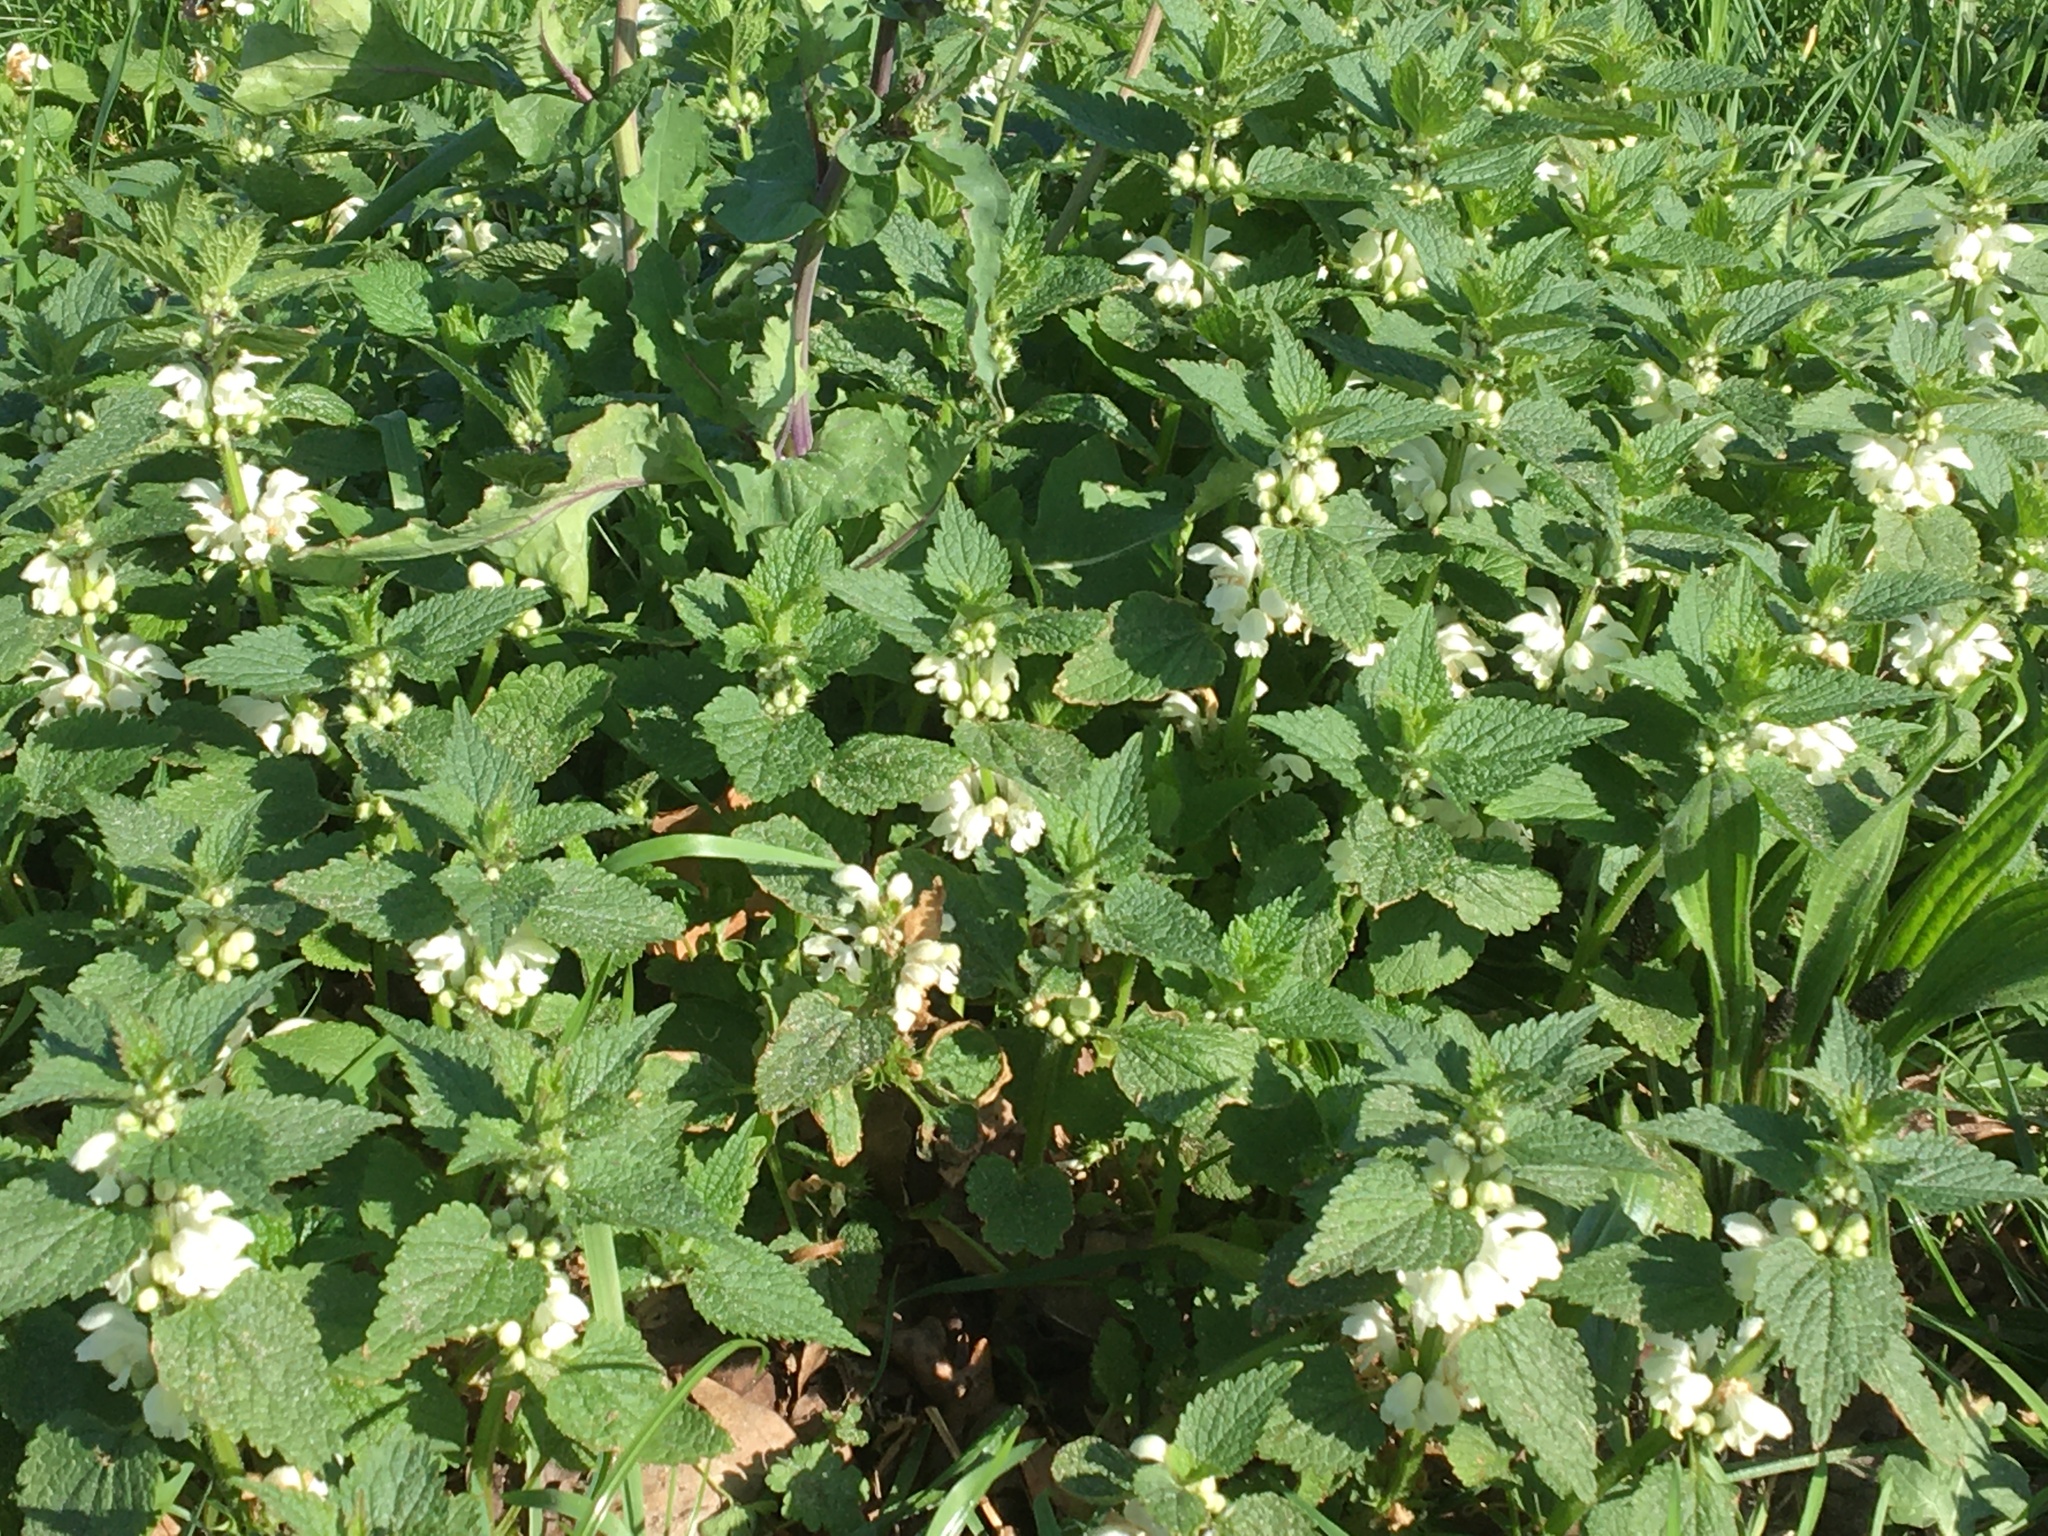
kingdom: Plantae
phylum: Tracheophyta
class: Magnoliopsida
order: Lamiales
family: Lamiaceae
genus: Lamium
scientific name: Lamium album
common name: White dead-nettle
